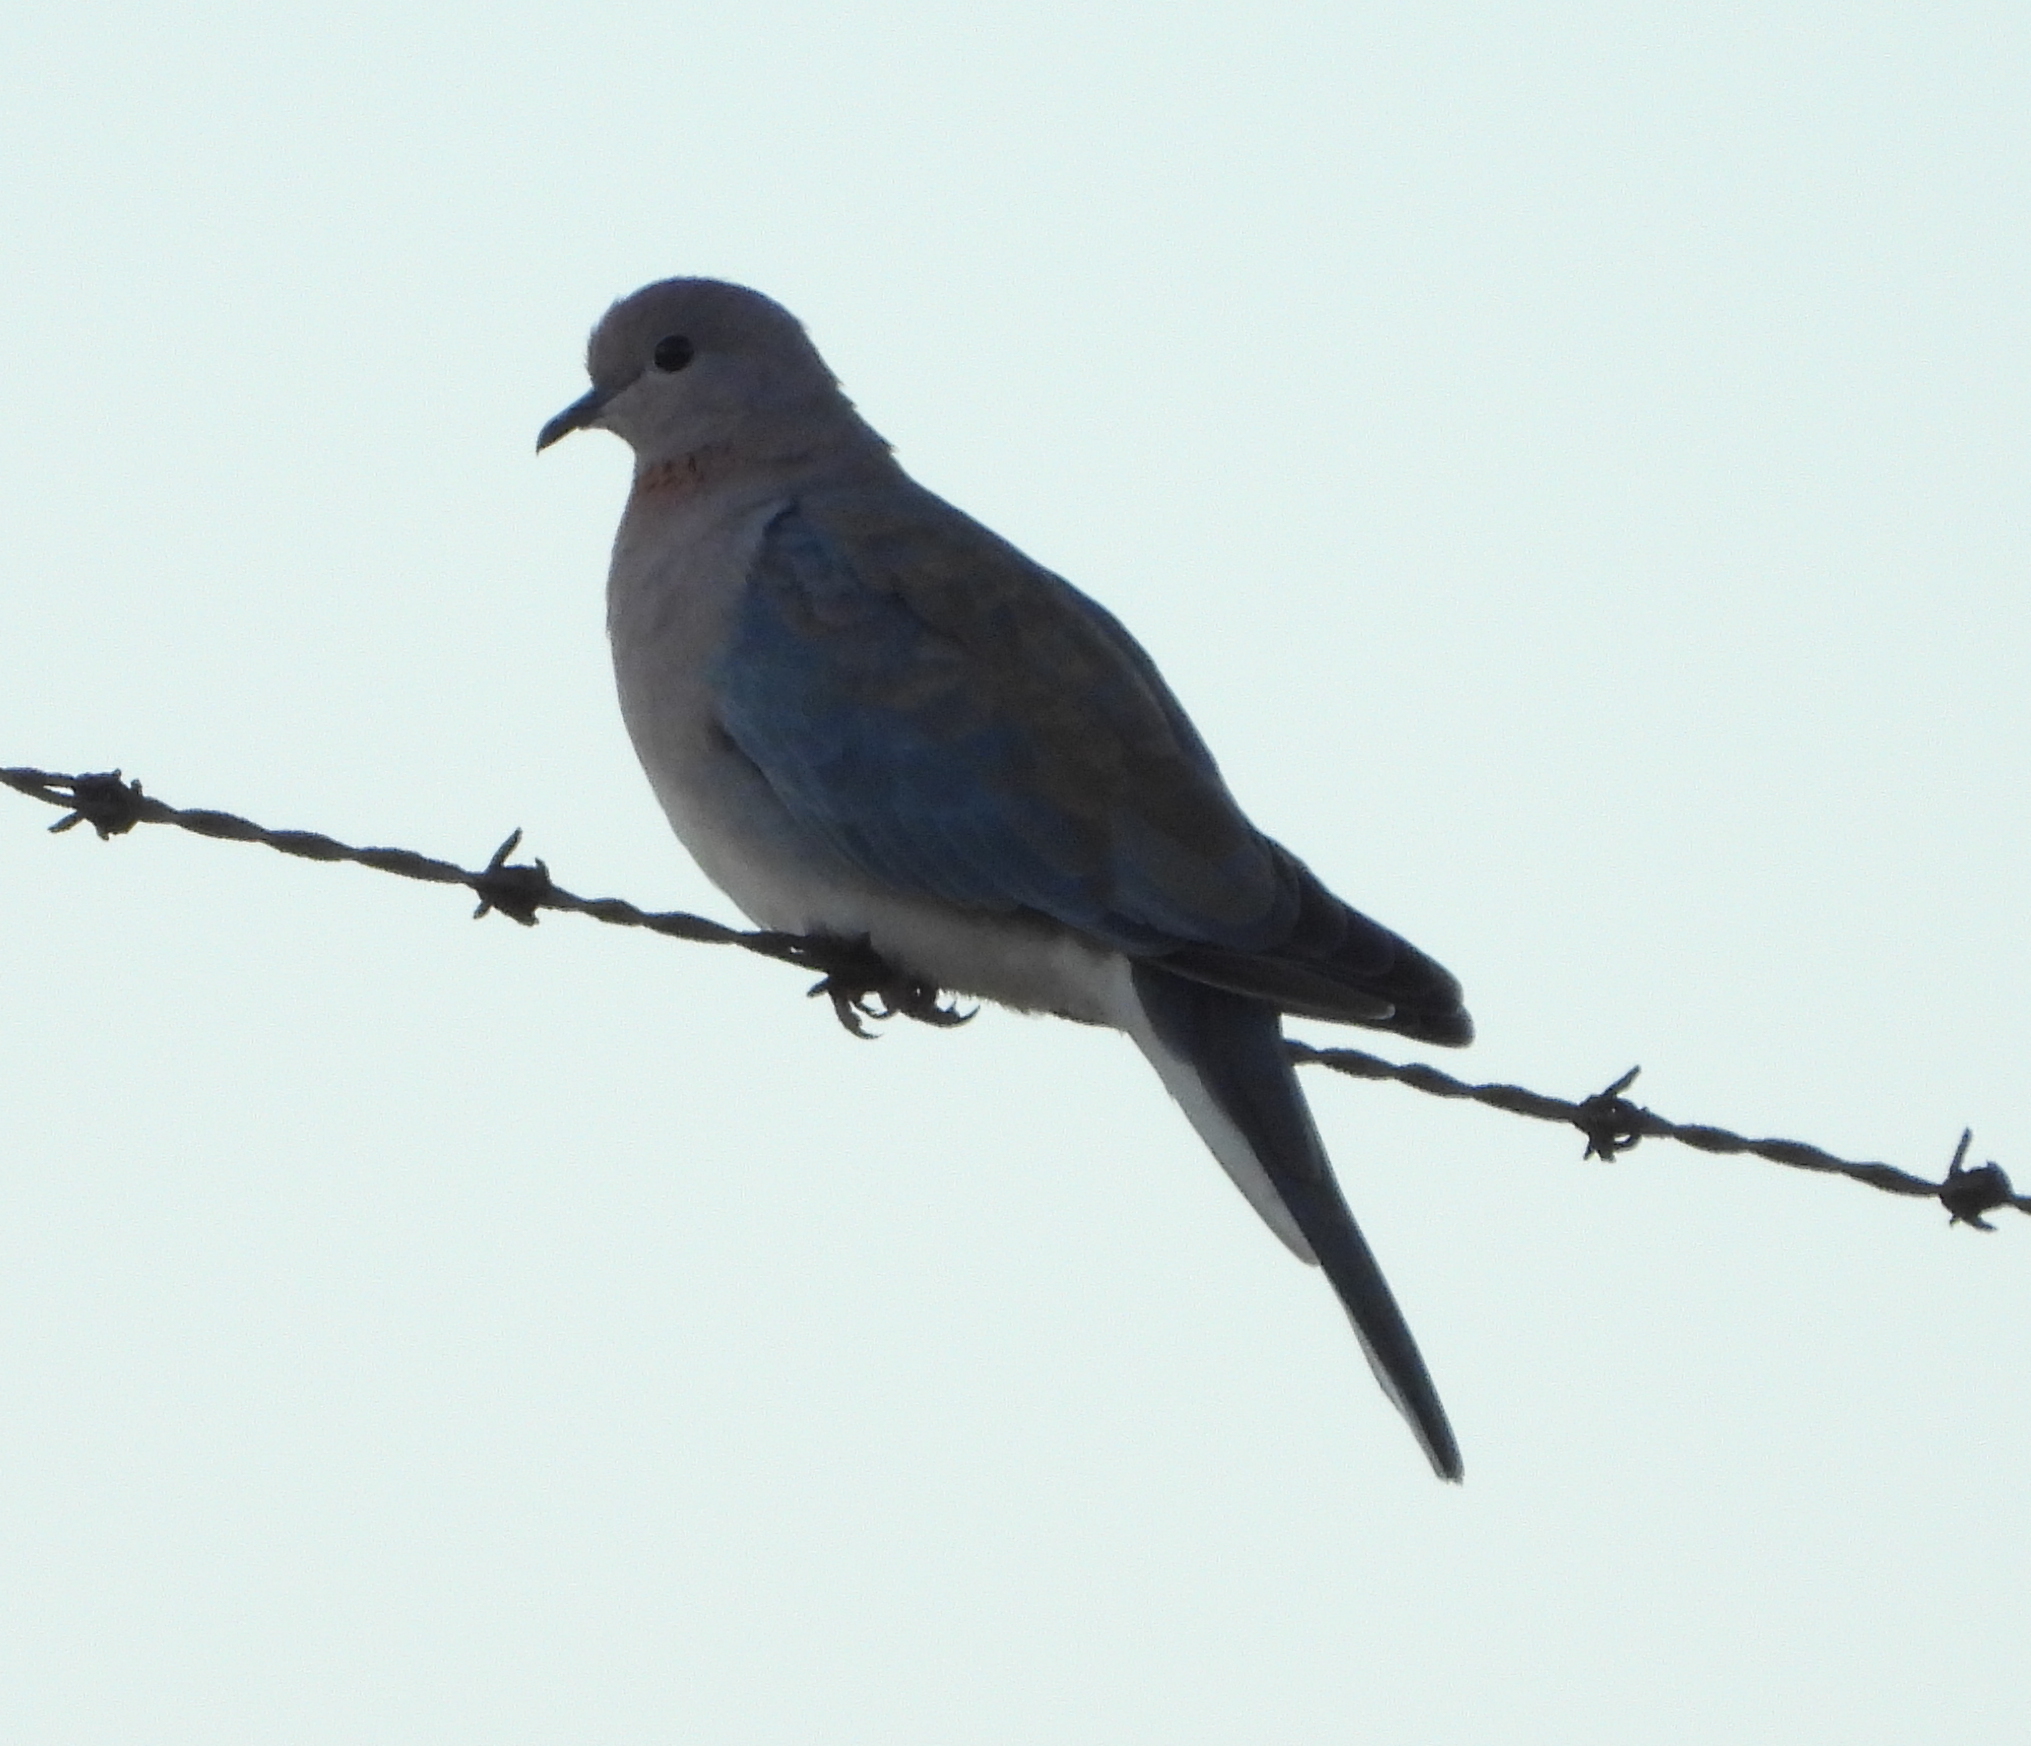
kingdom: Animalia
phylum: Chordata
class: Aves
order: Columbiformes
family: Columbidae
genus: Spilopelia
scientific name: Spilopelia senegalensis
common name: Laughing dove
